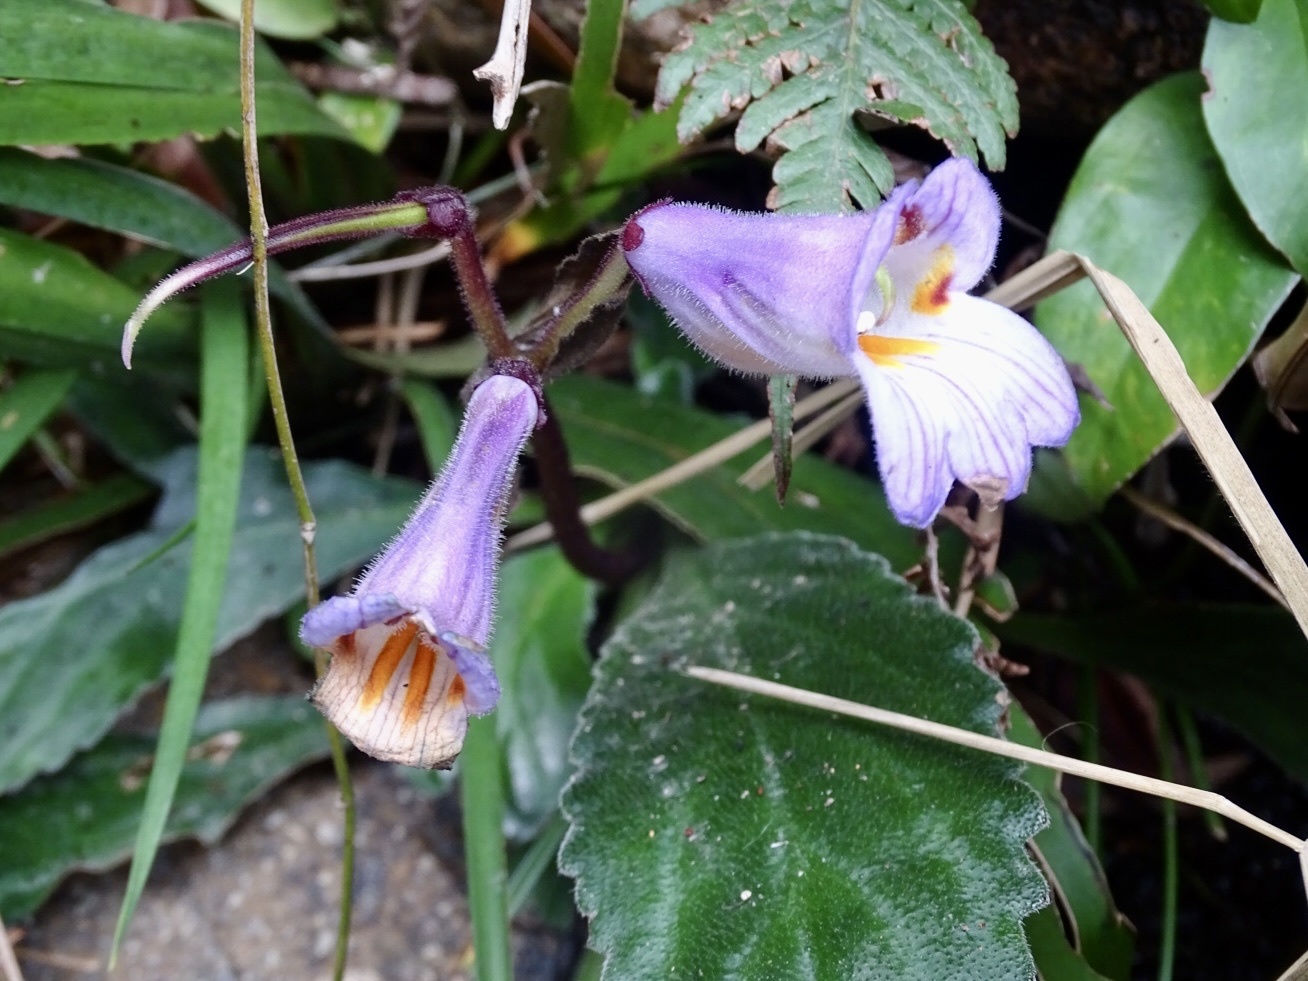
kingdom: Plantae
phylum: Tracheophyta
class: Magnoliopsida
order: Lamiales
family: Gesneriaceae
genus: Primulina
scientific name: Primulina dryas
